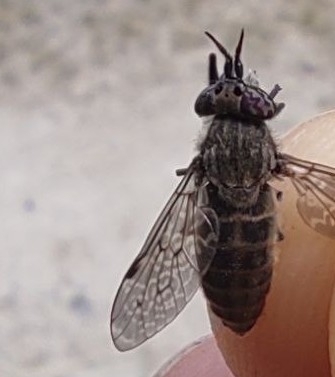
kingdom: Animalia
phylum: Arthropoda
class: Insecta
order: Diptera
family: Tabanidae
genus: Haematopota
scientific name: Haematopota pluvialis
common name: Common horse fly
